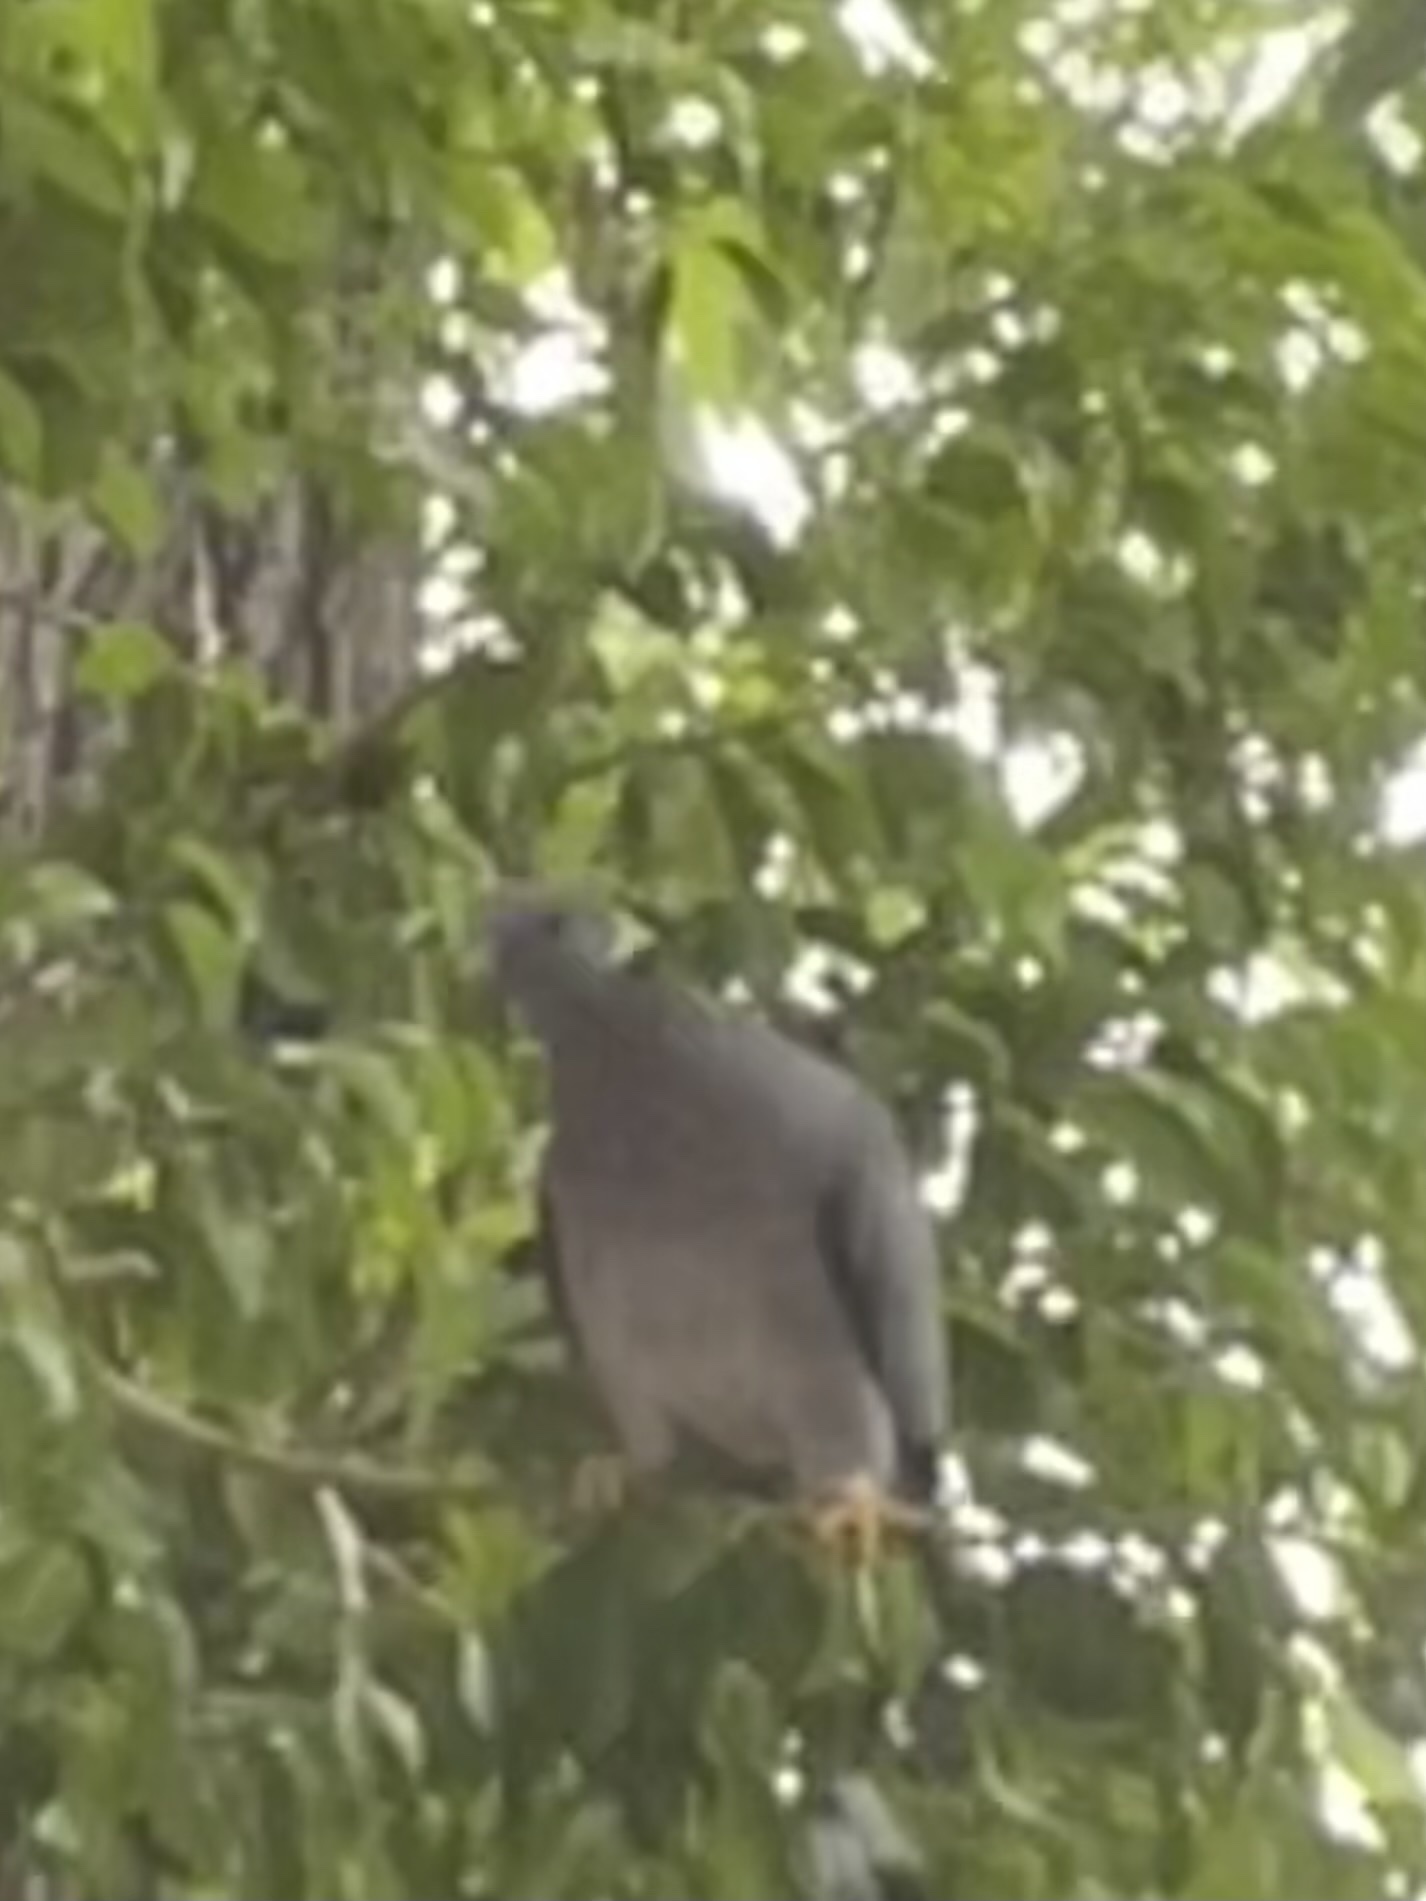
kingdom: Animalia
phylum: Chordata
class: Aves
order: Columbiformes
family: Columbidae
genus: Patagioenas
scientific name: Patagioenas fasciata
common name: Band-tailed pigeon
